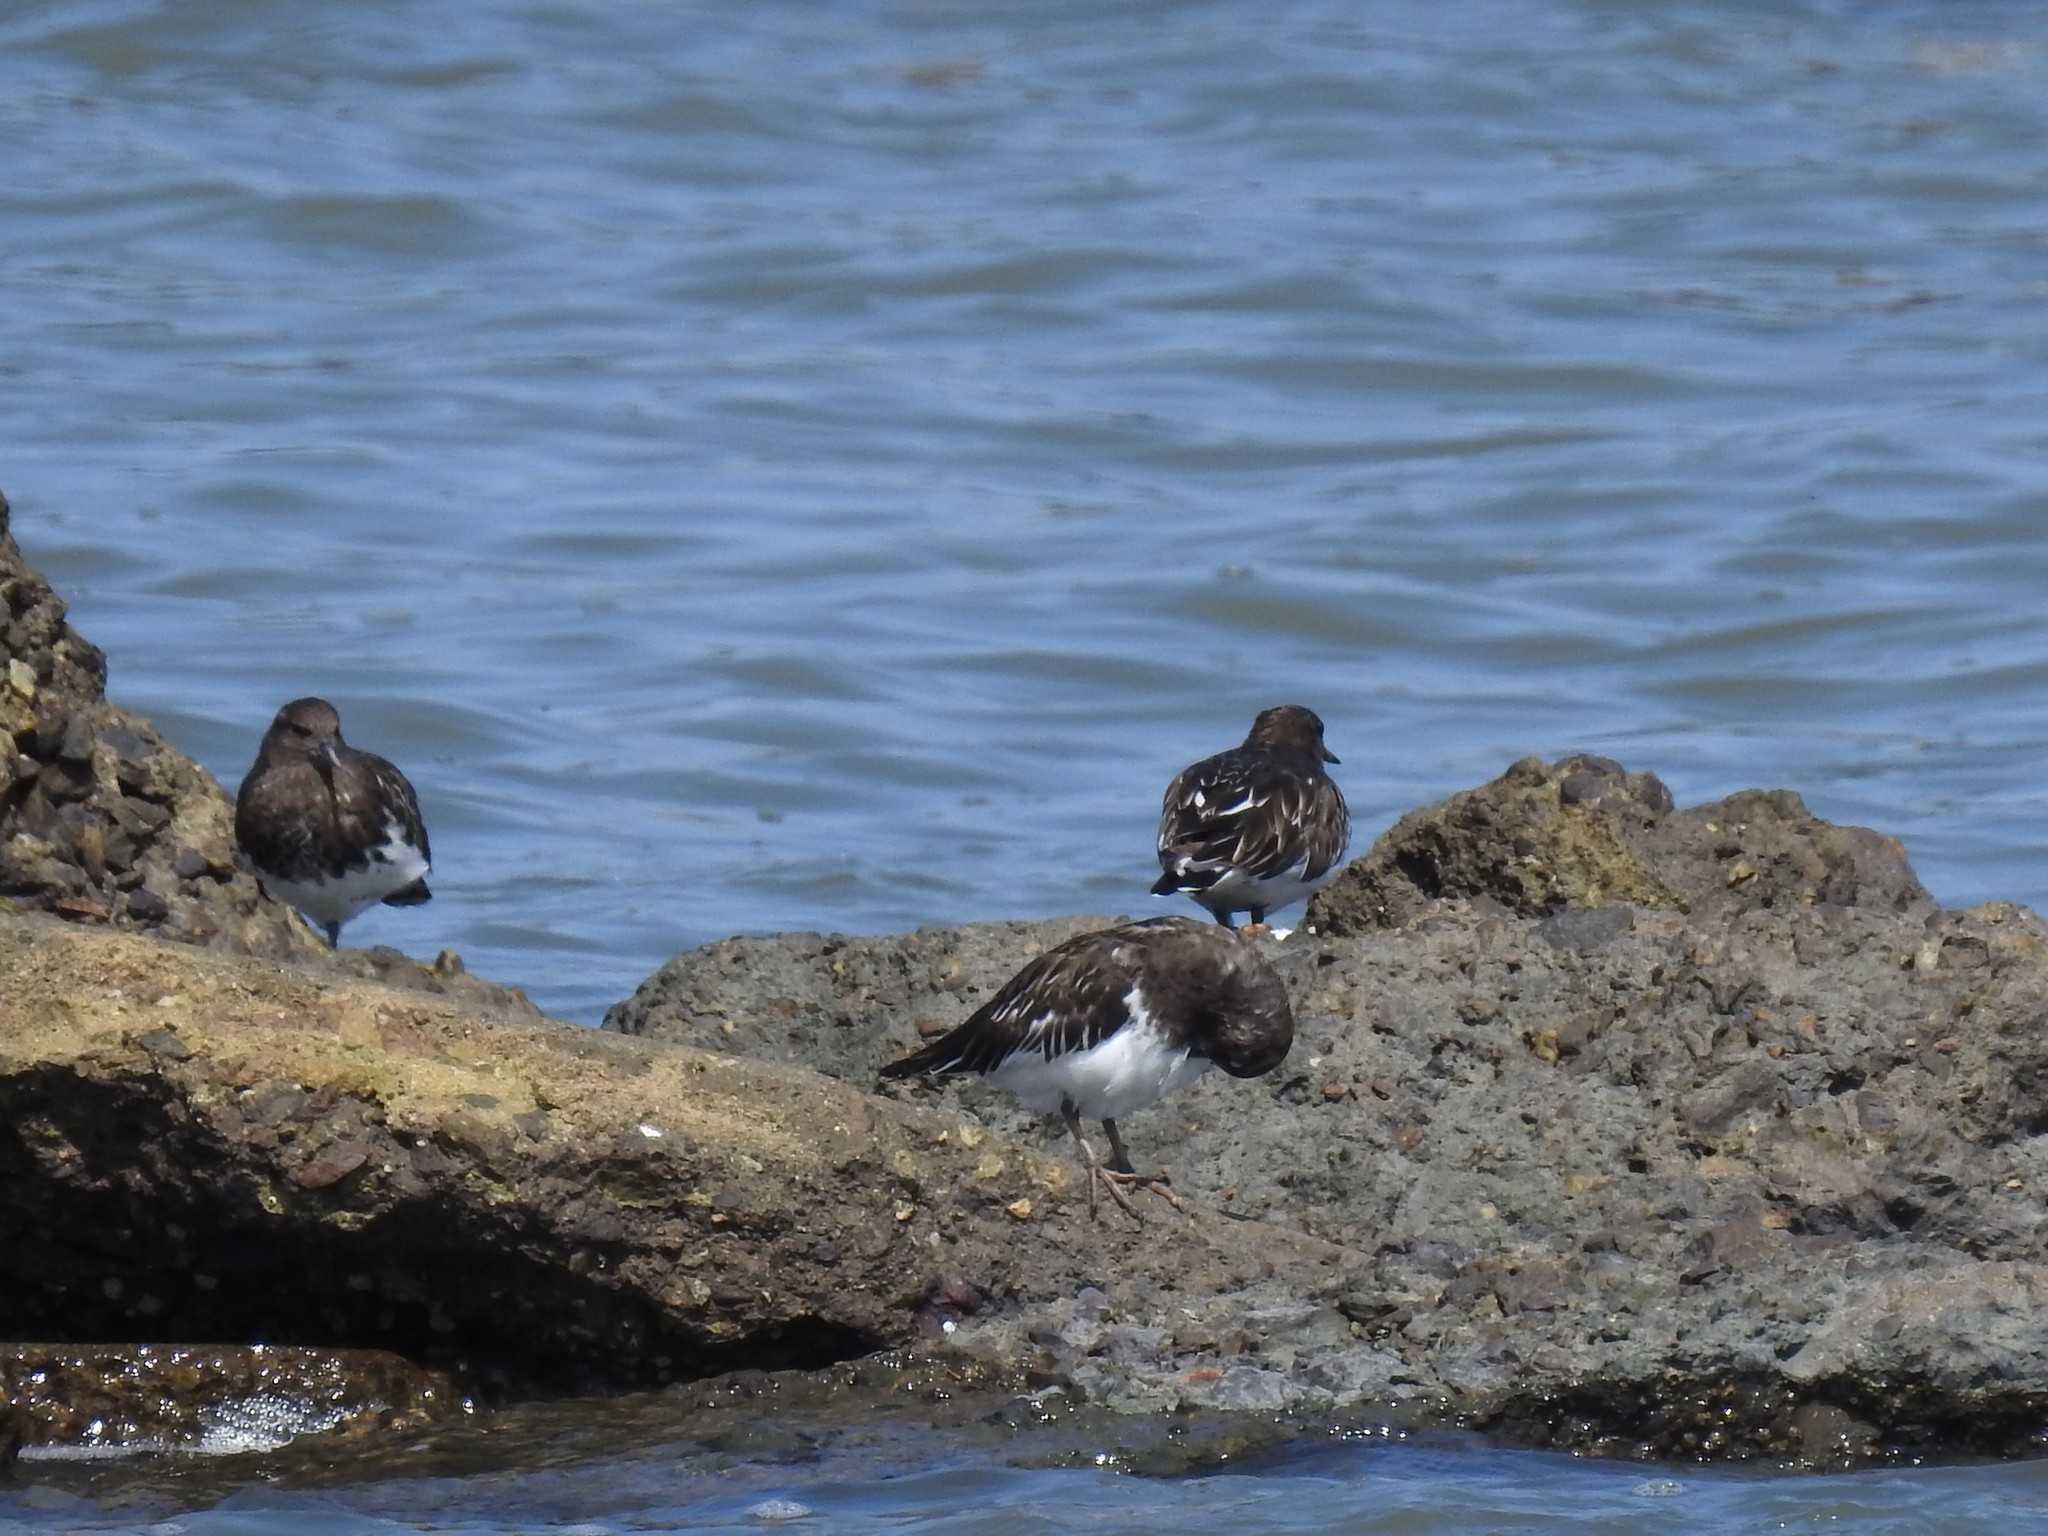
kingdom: Animalia
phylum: Chordata
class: Aves
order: Charadriiformes
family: Scolopacidae
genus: Arenaria
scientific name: Arenaria melanocephala
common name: Black turnstone
